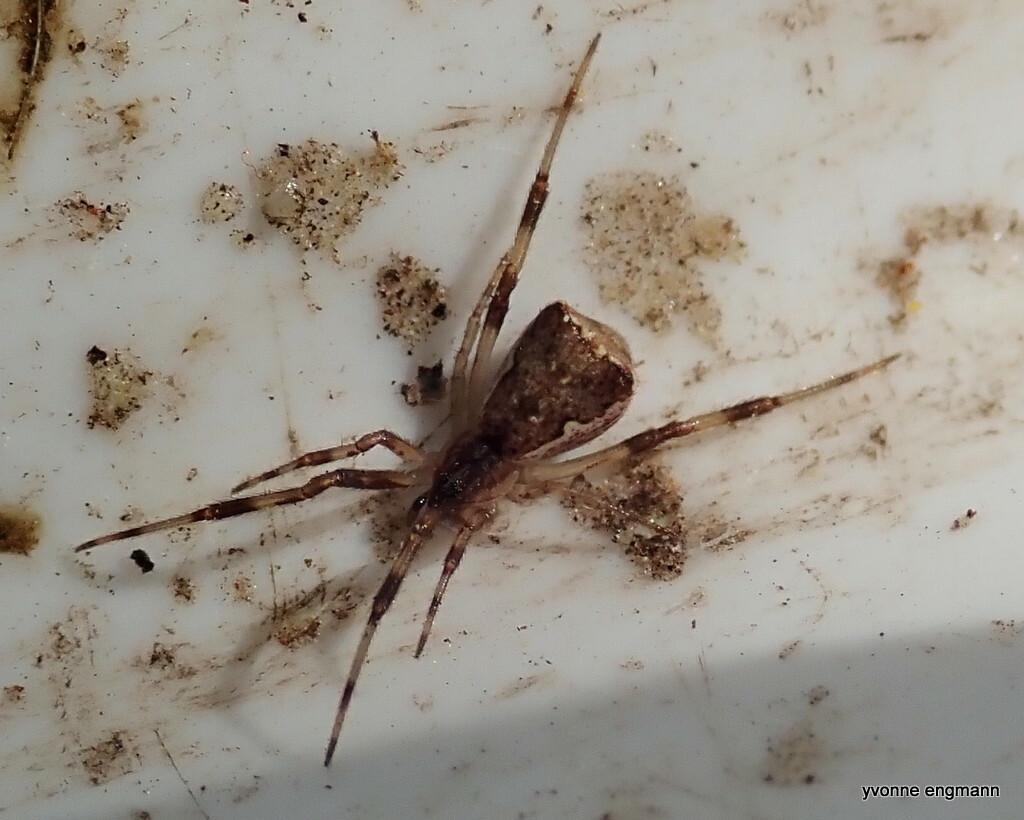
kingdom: Animalia
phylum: Arthropoda
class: Arachnida
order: Araneae
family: Theridiidae
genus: Episinus
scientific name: Episinus angulatus
